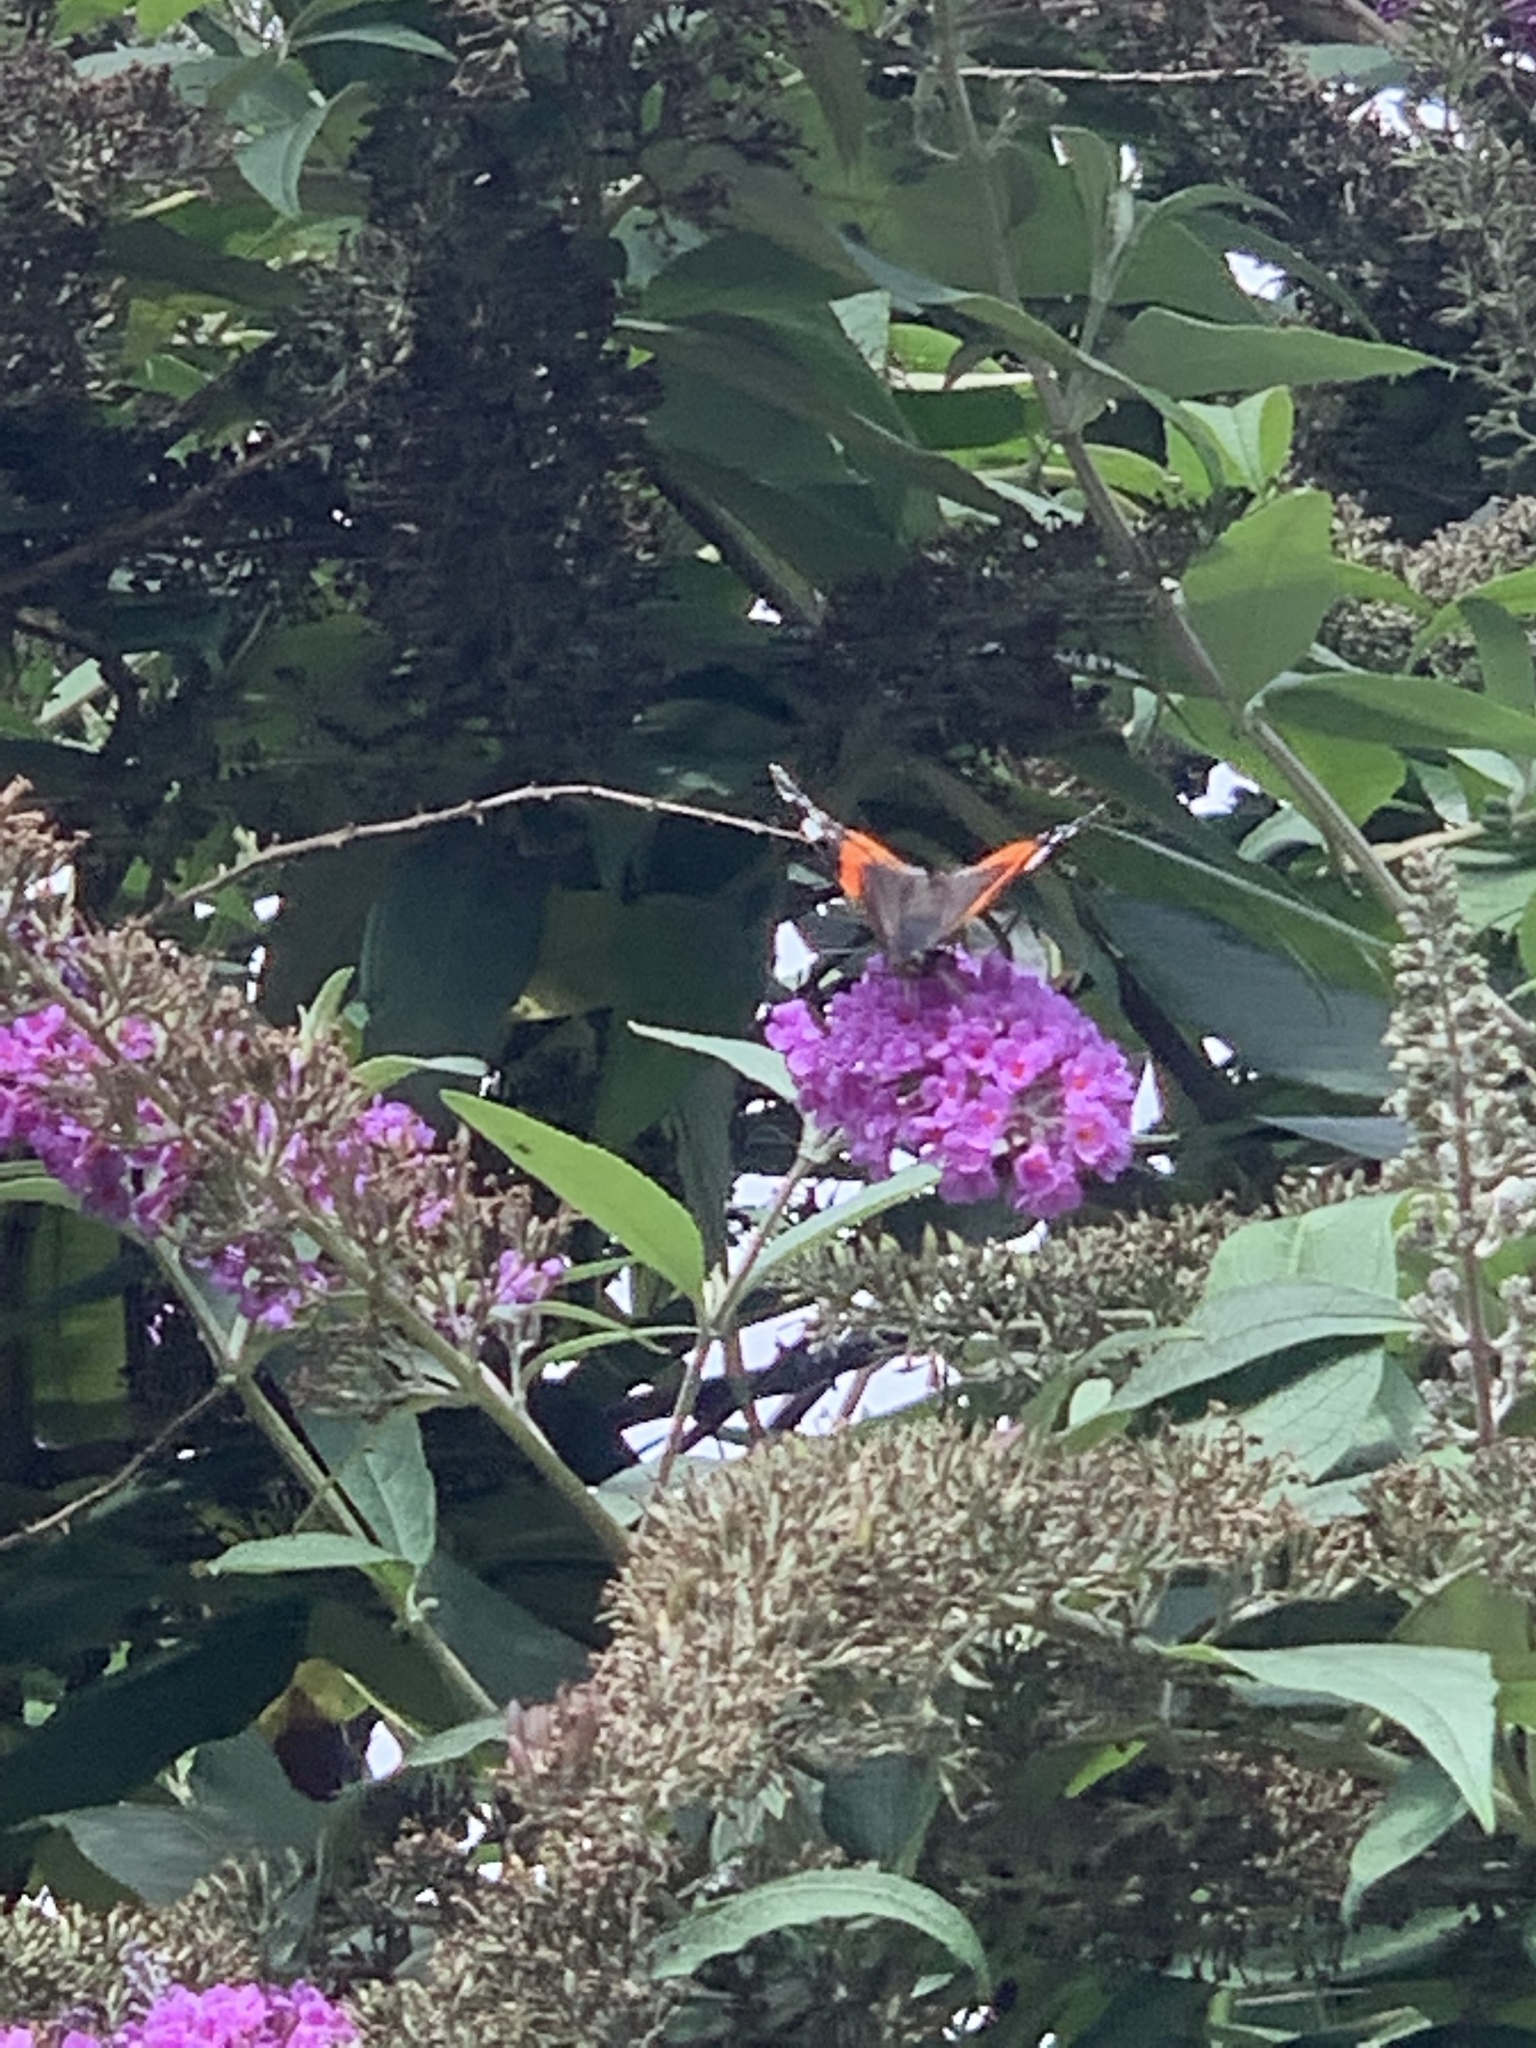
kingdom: Animalia
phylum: Arthropoda
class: Insecta
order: Lepidoptera
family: Nymphalidae
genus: Vanessa
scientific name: Vanessa atalanta
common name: Red admiral
